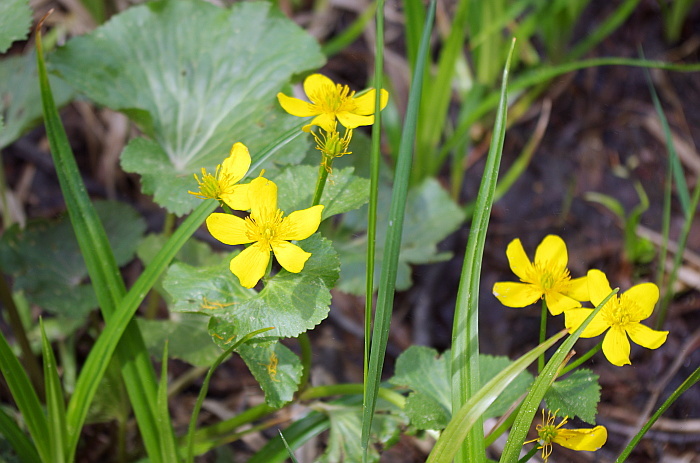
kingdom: Plantae
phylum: Tracheophyta
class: Magnoliopsida
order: Ranunculales
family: Ranunculaceae
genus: Caltha
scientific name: Caltha palustris
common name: Marsh marigold
